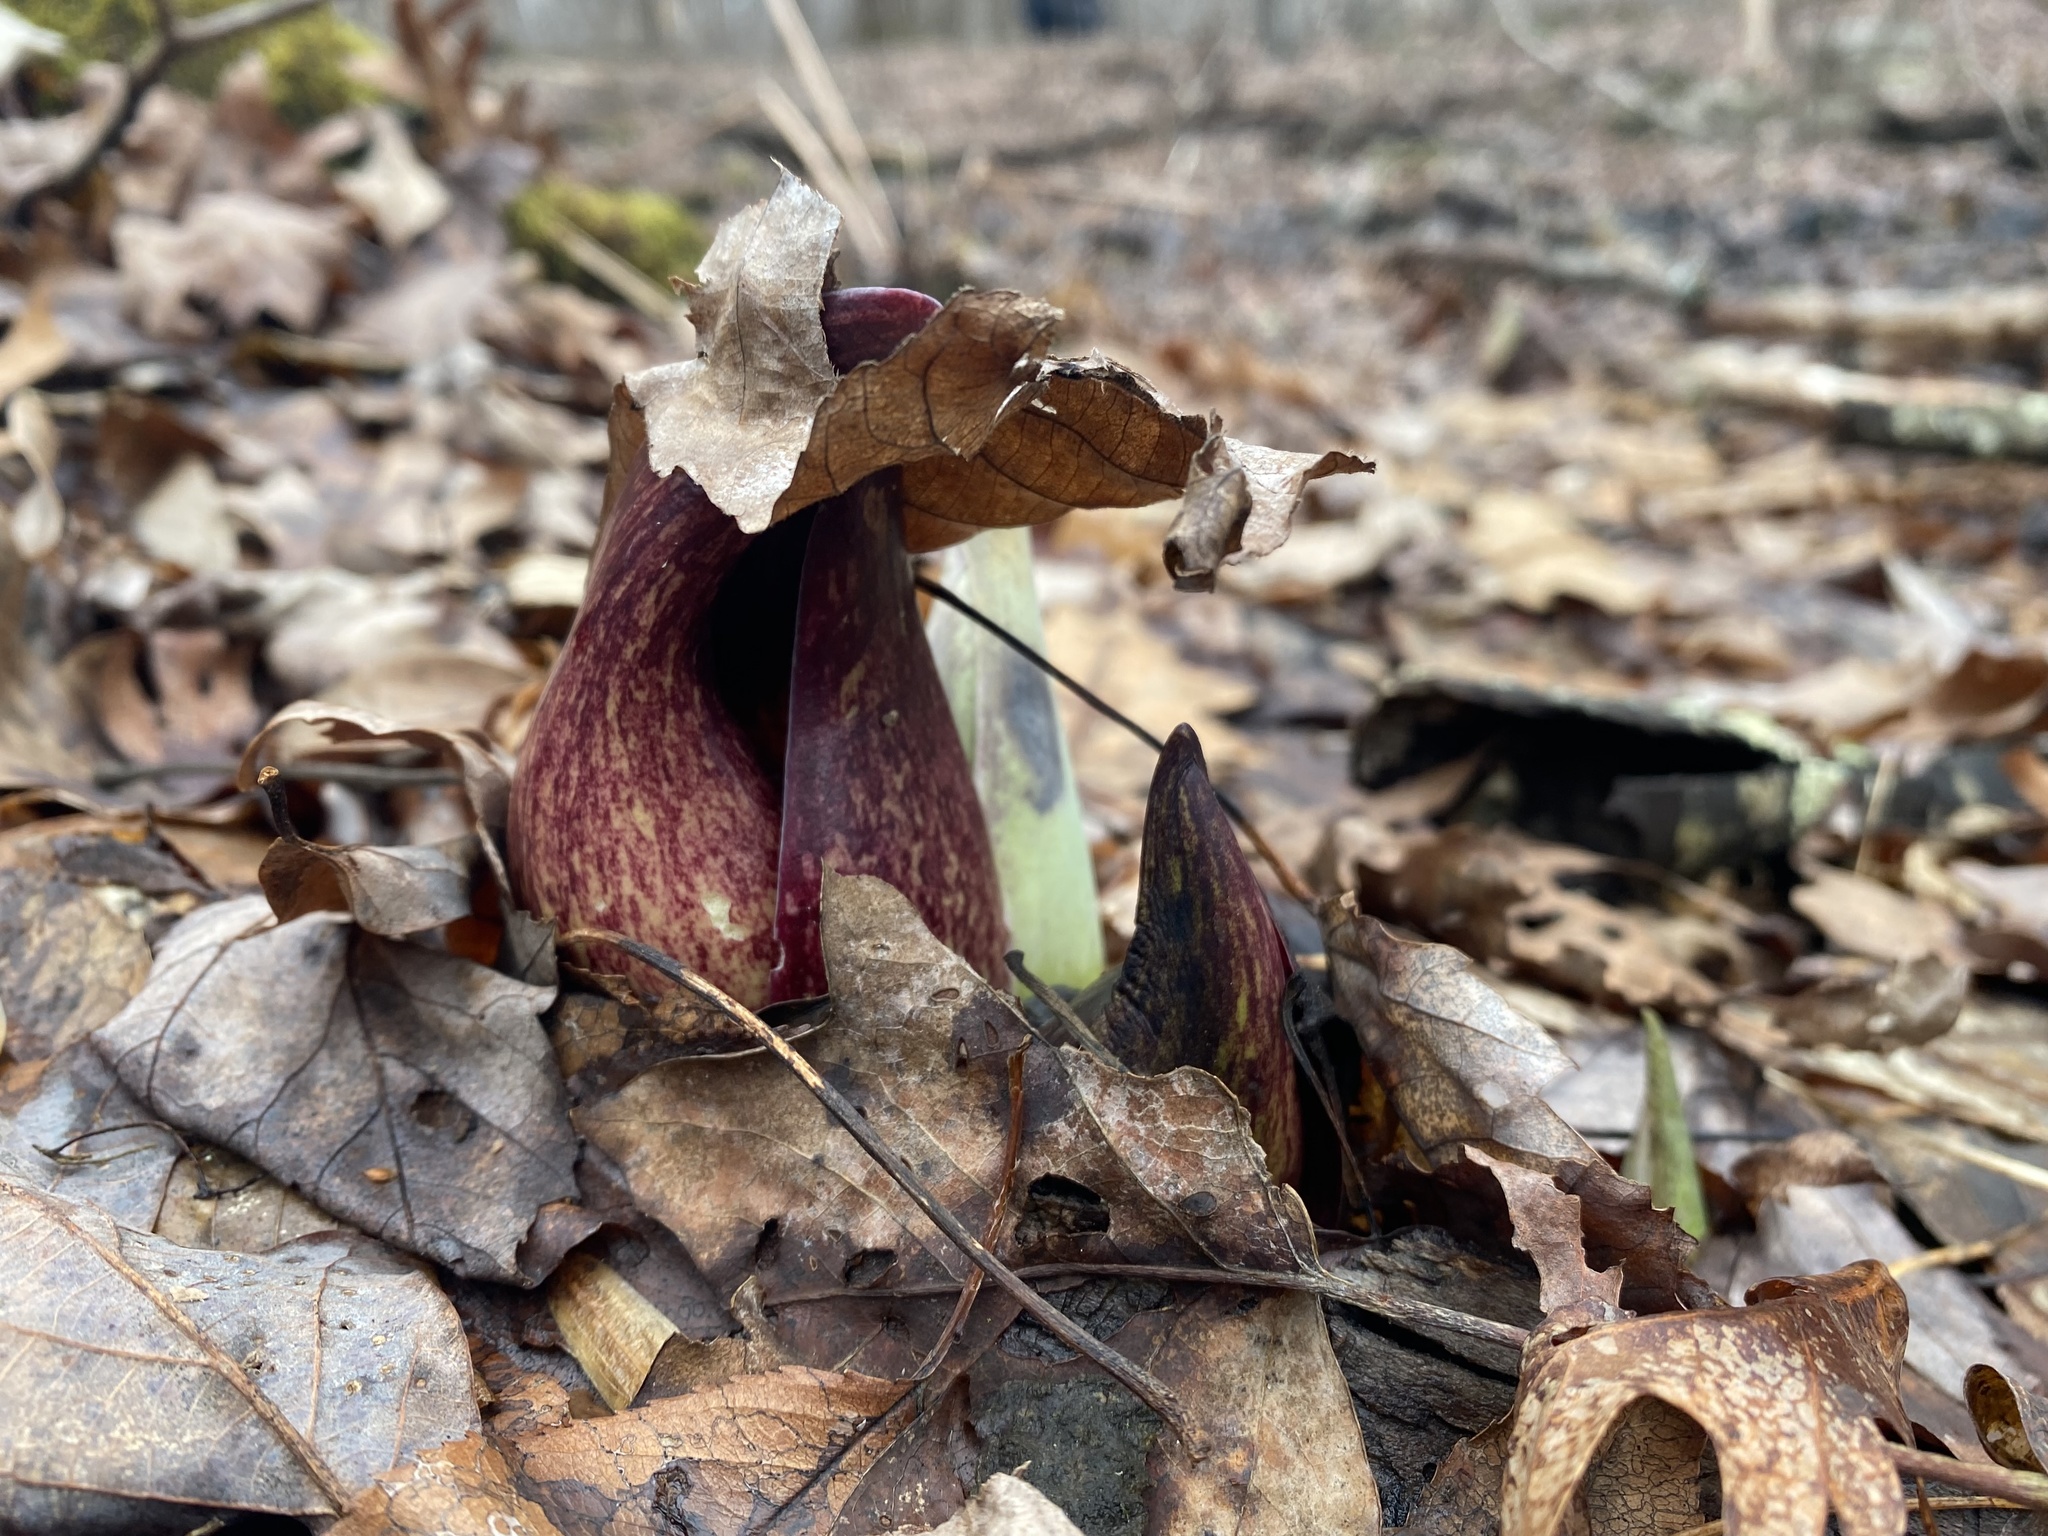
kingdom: Plantae
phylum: Tracheophyta
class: Liliopsida
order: Alismatales
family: Araceae
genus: Symplocarpus
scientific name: Symplocarpus foetidus
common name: Eastern skunk cabbage
